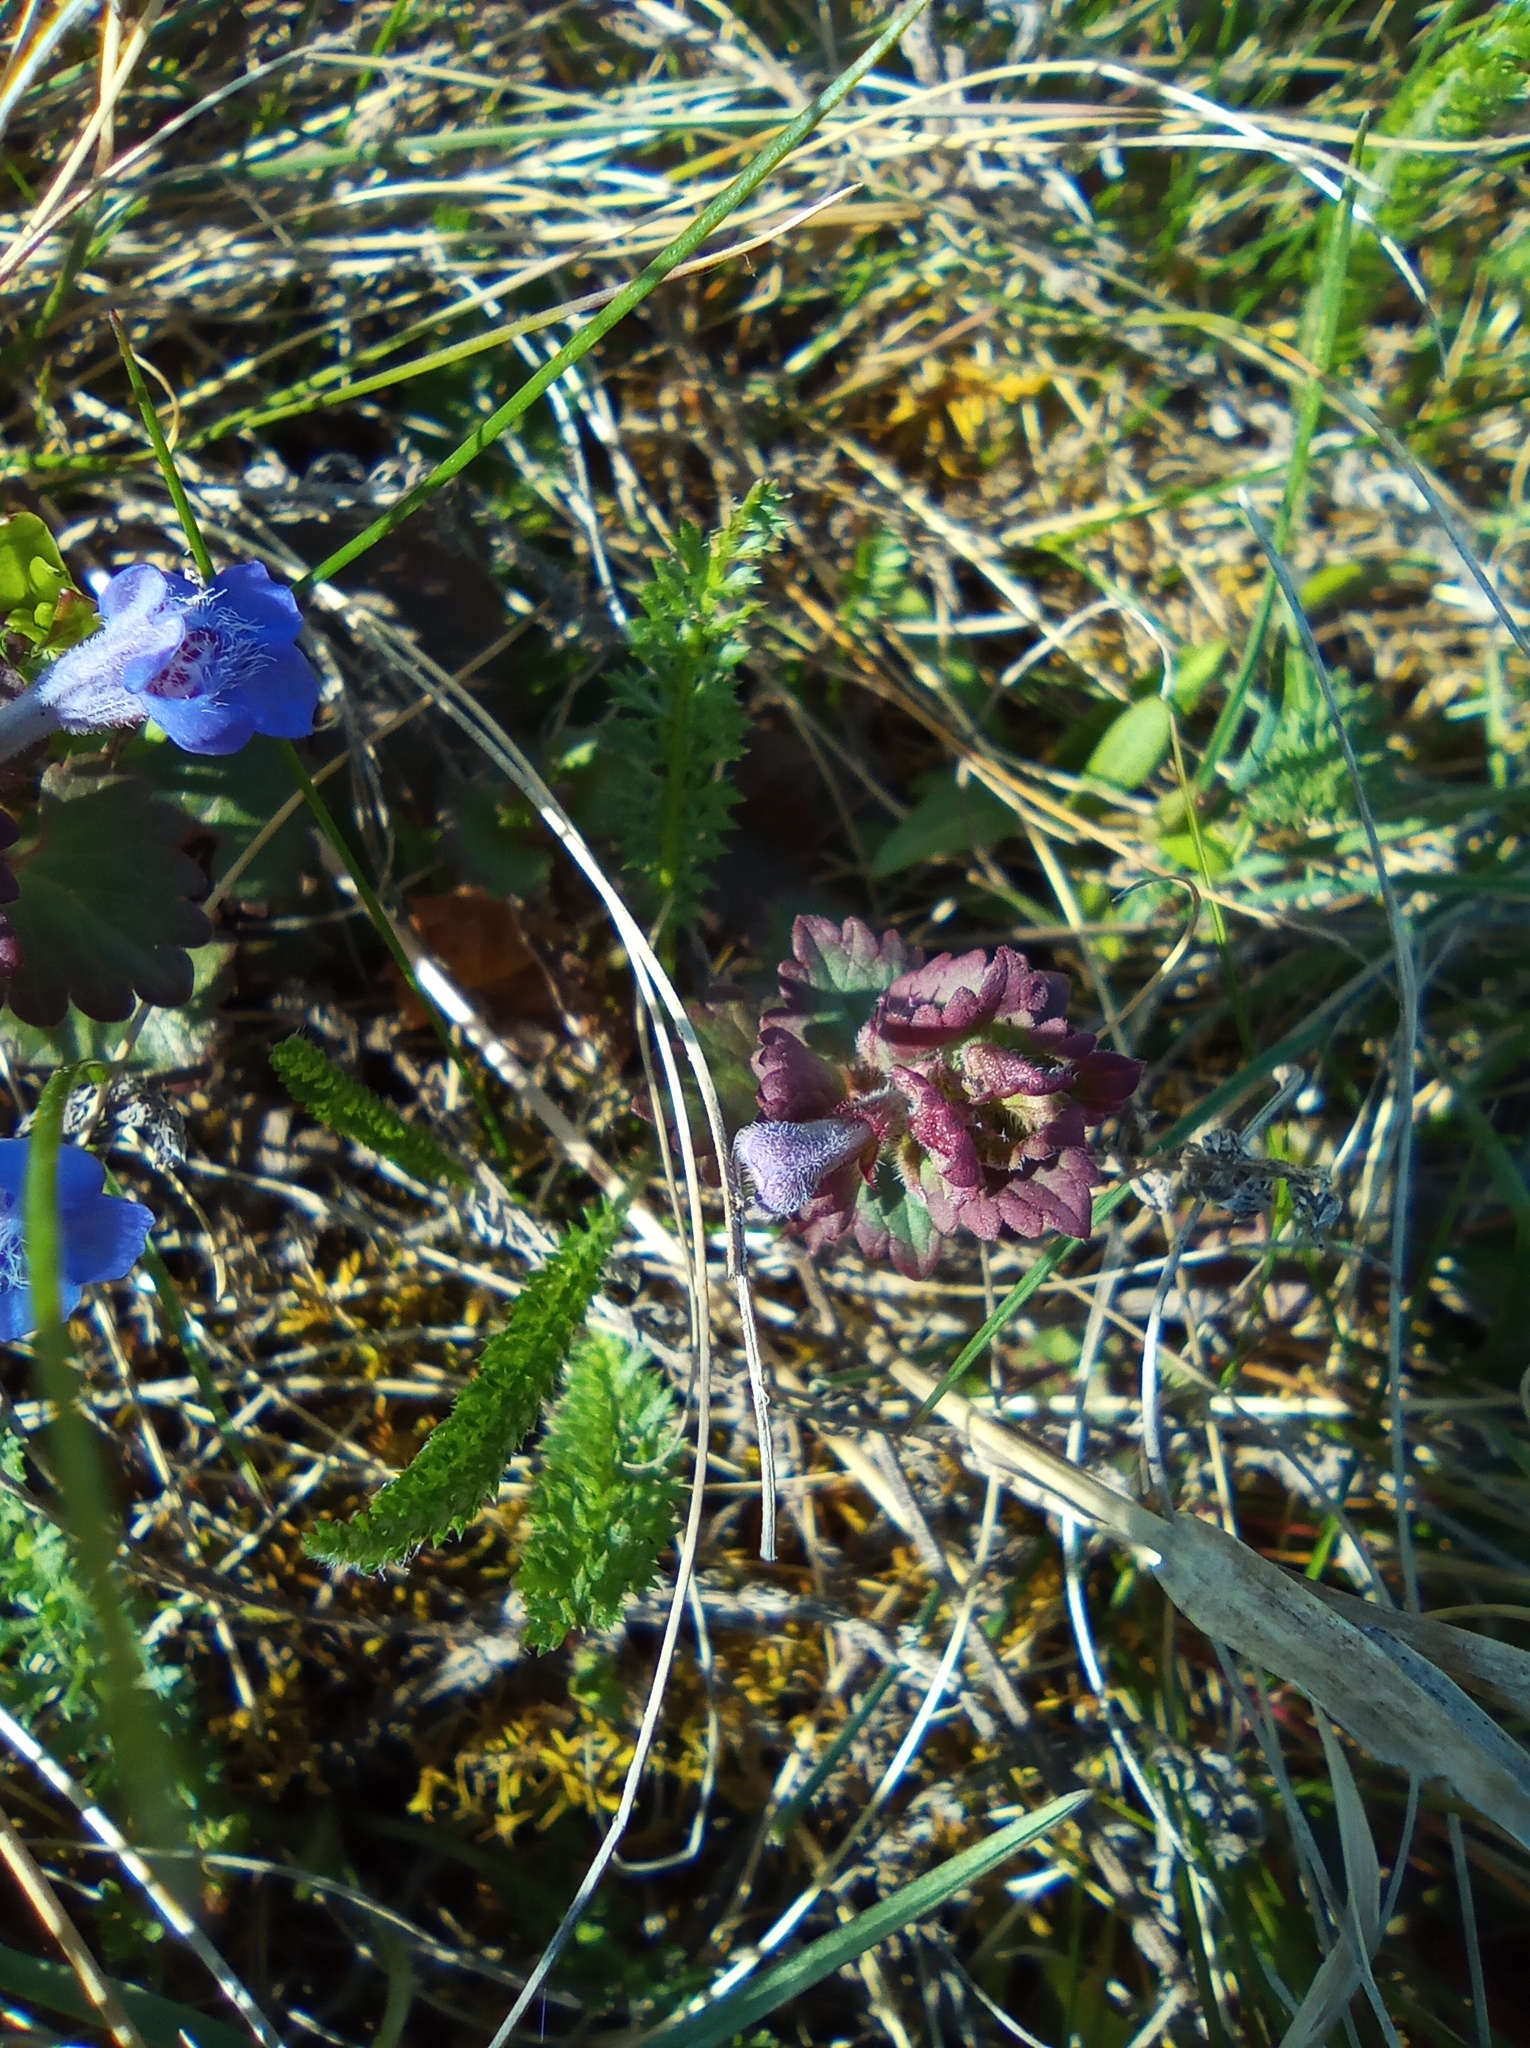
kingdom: Plantae
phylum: Tracheophyta
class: Magnoliopsida
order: Lamiales
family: Lamiaceae
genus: Glechoma
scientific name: Glechoma hederacea
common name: Ground ivy
